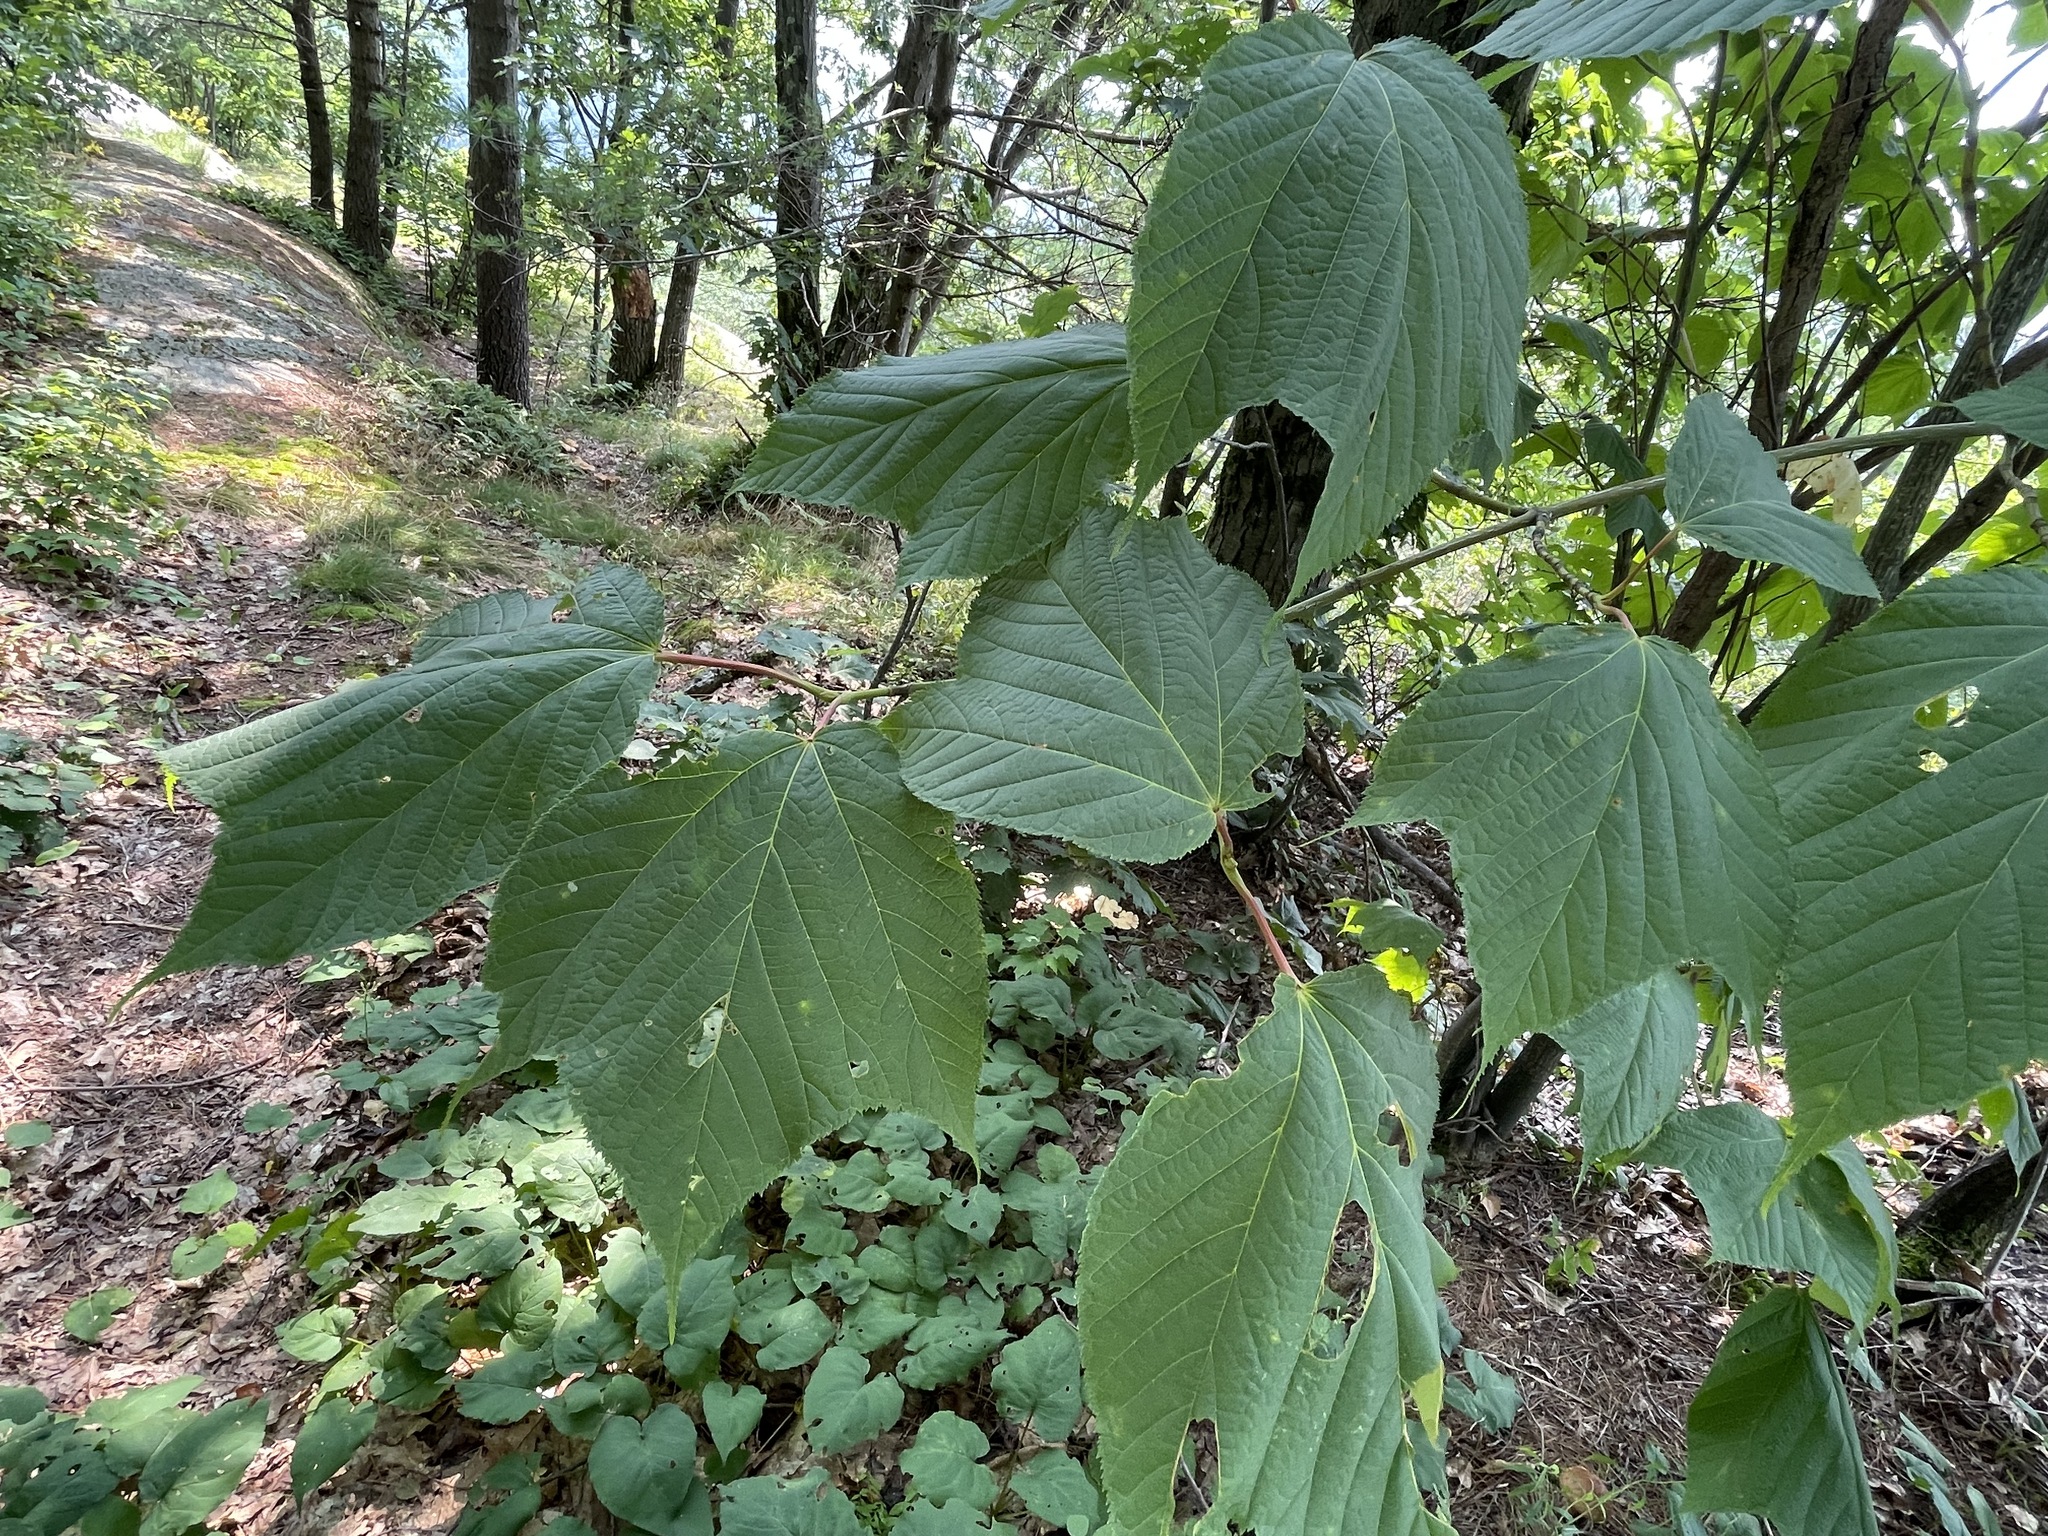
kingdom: Plantae
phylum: Tracheophyta
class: Magnoliopsida
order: Sapindales
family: Sapindaceae
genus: Acer
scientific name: Acer pensylvanicum
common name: Moosewood
